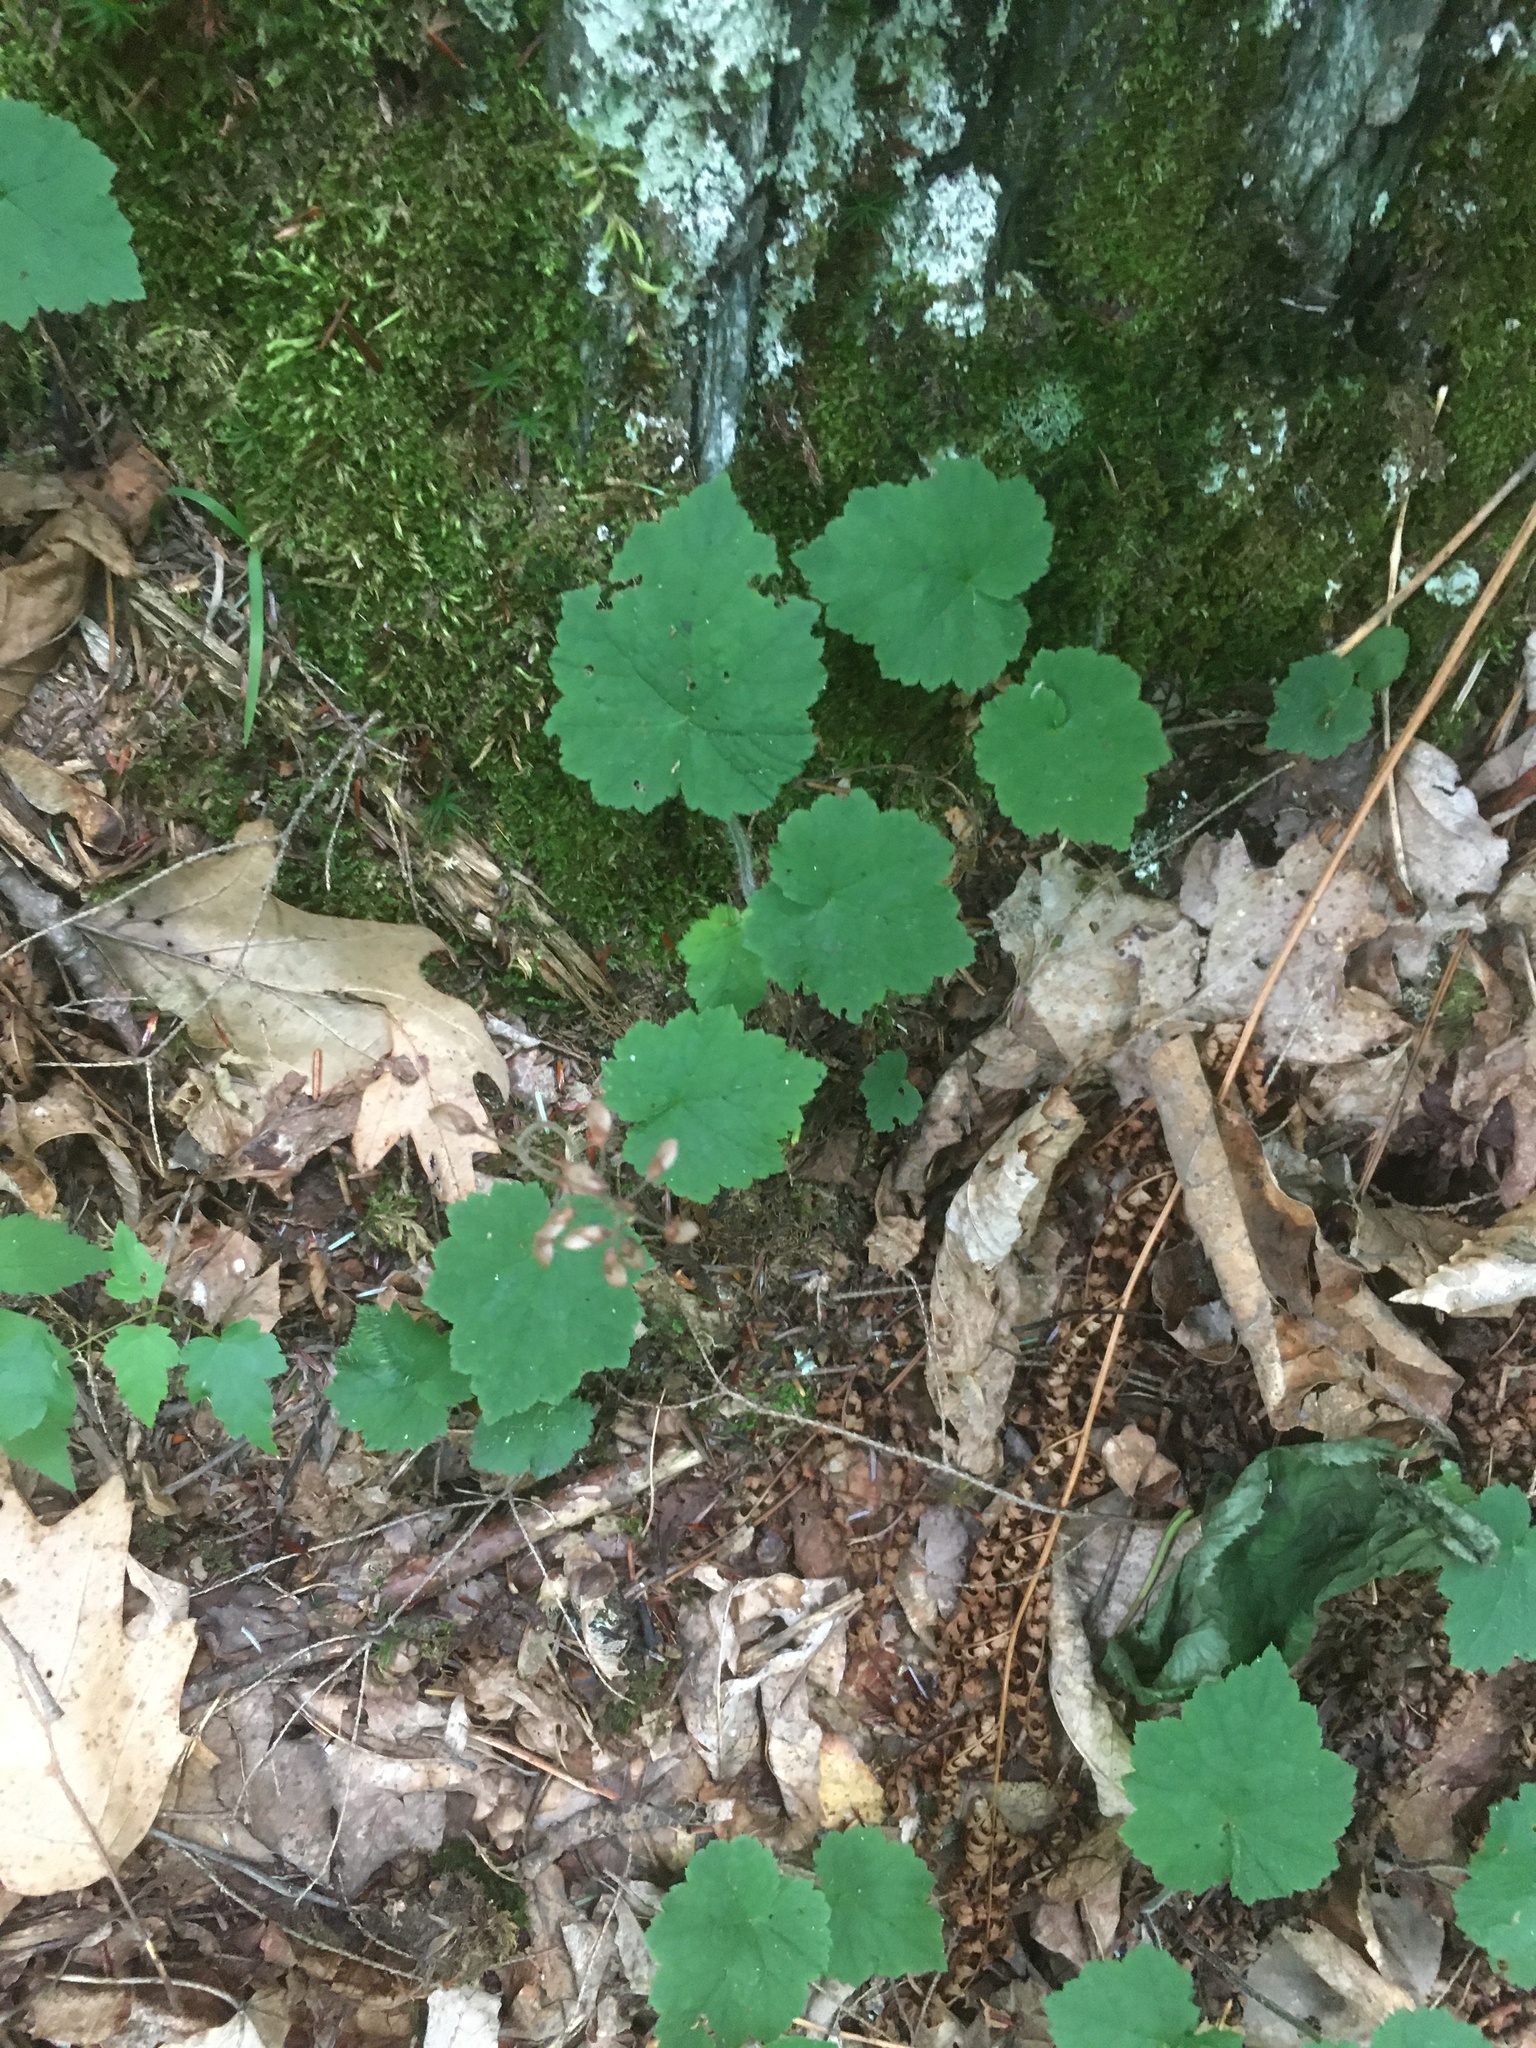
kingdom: Plantae
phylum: Tracheophyta
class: Magnoliopsida
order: Saxifragales
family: Saxifragaceae
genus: Tiarella
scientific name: Tiarella stolonifera
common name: Stoloniferous foamflower
